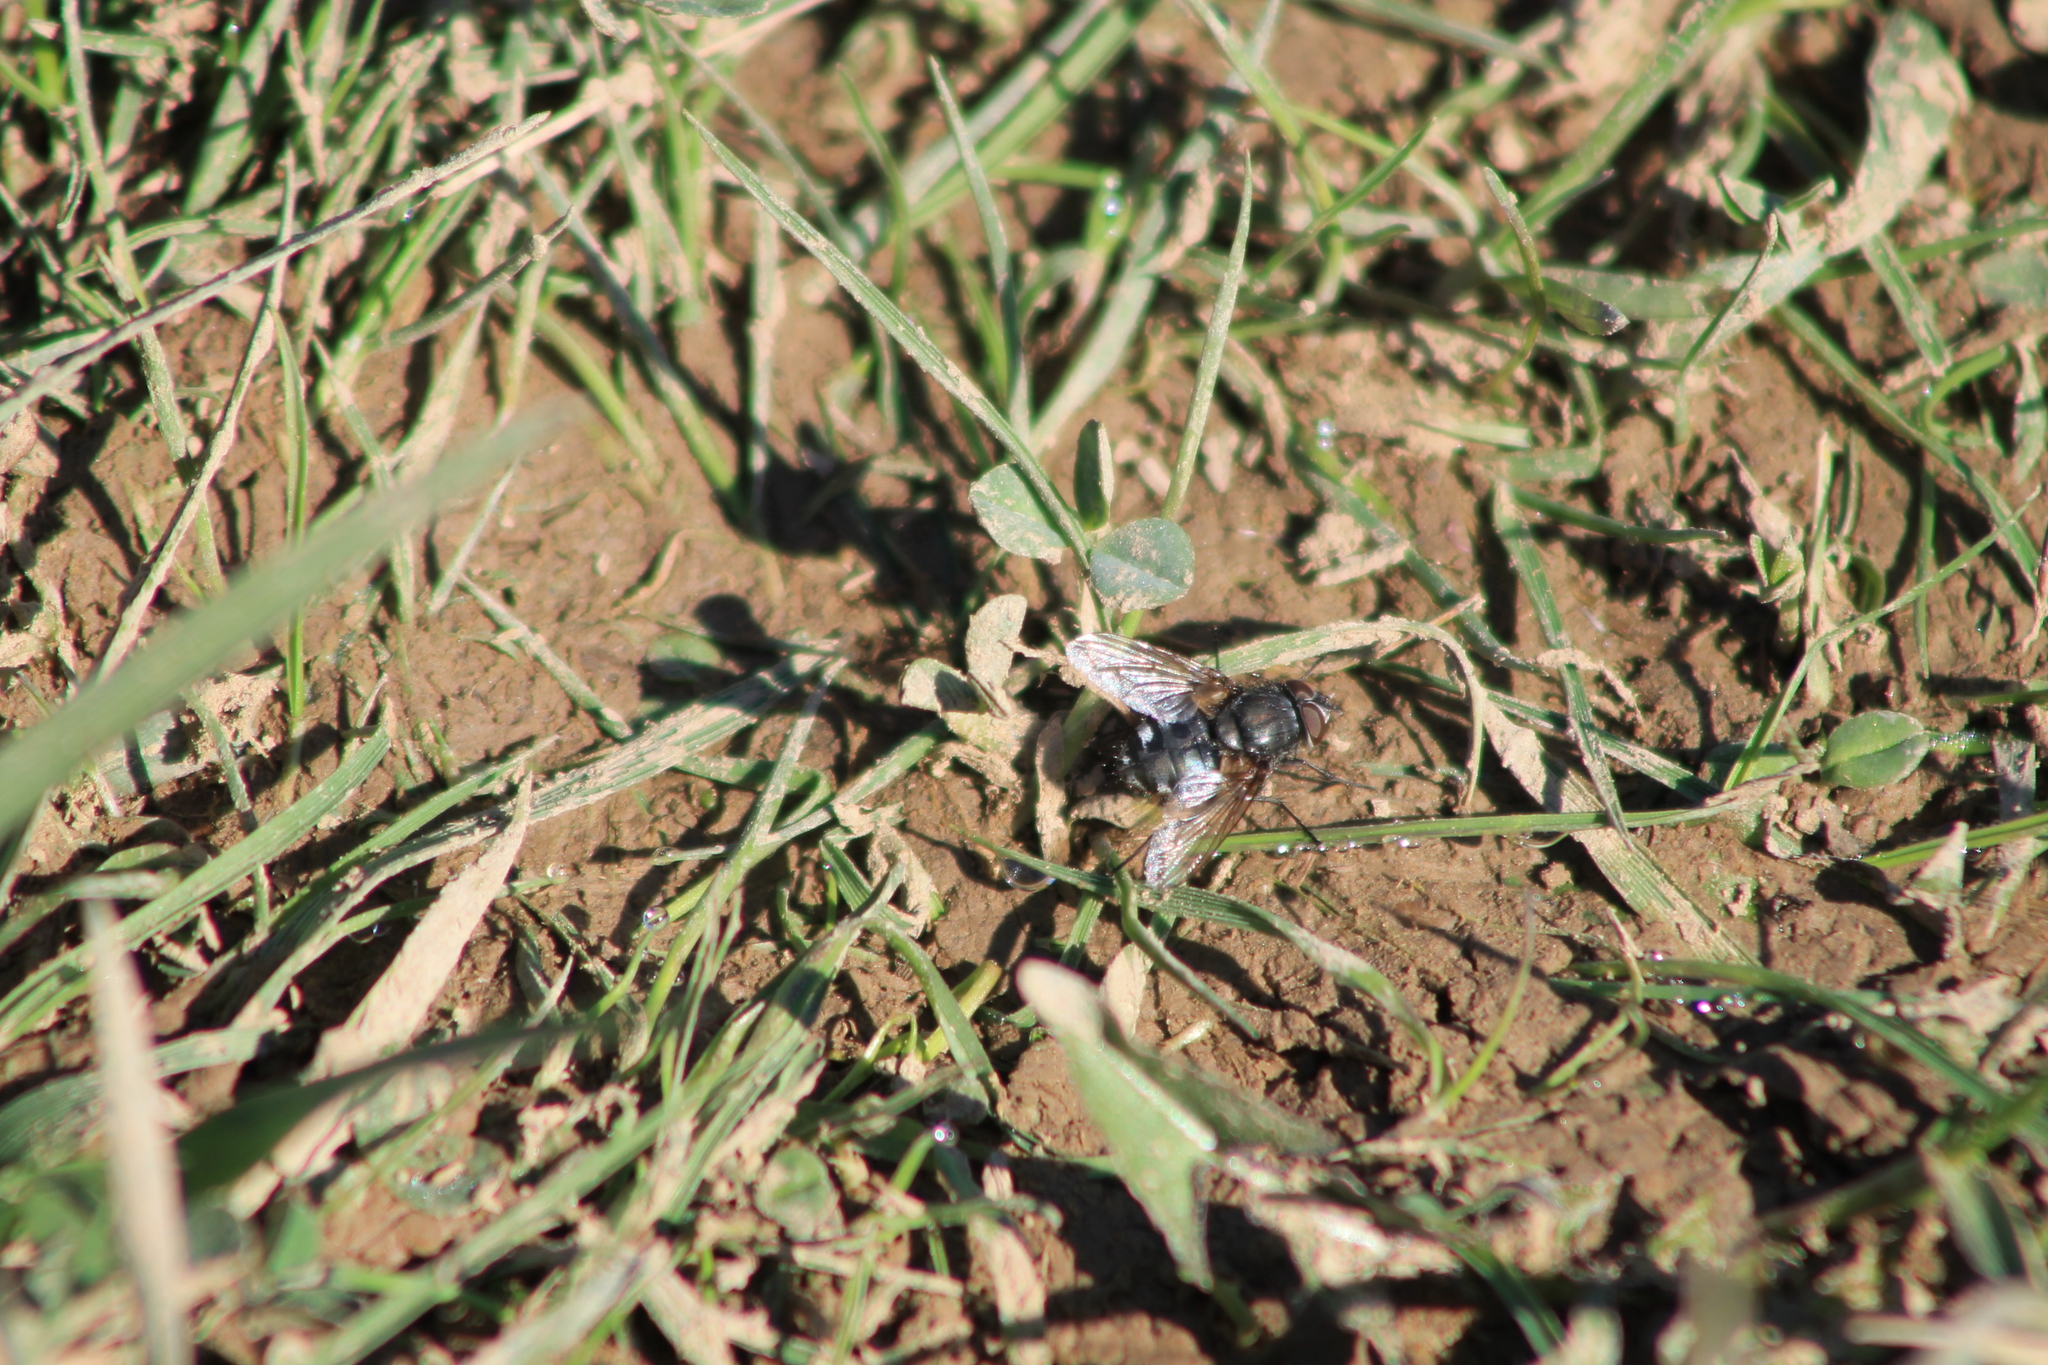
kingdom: Animalia
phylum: Arthropoda
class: Insecta
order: Diptera
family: Polleniidae
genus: Pollenia
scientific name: Pollenia
